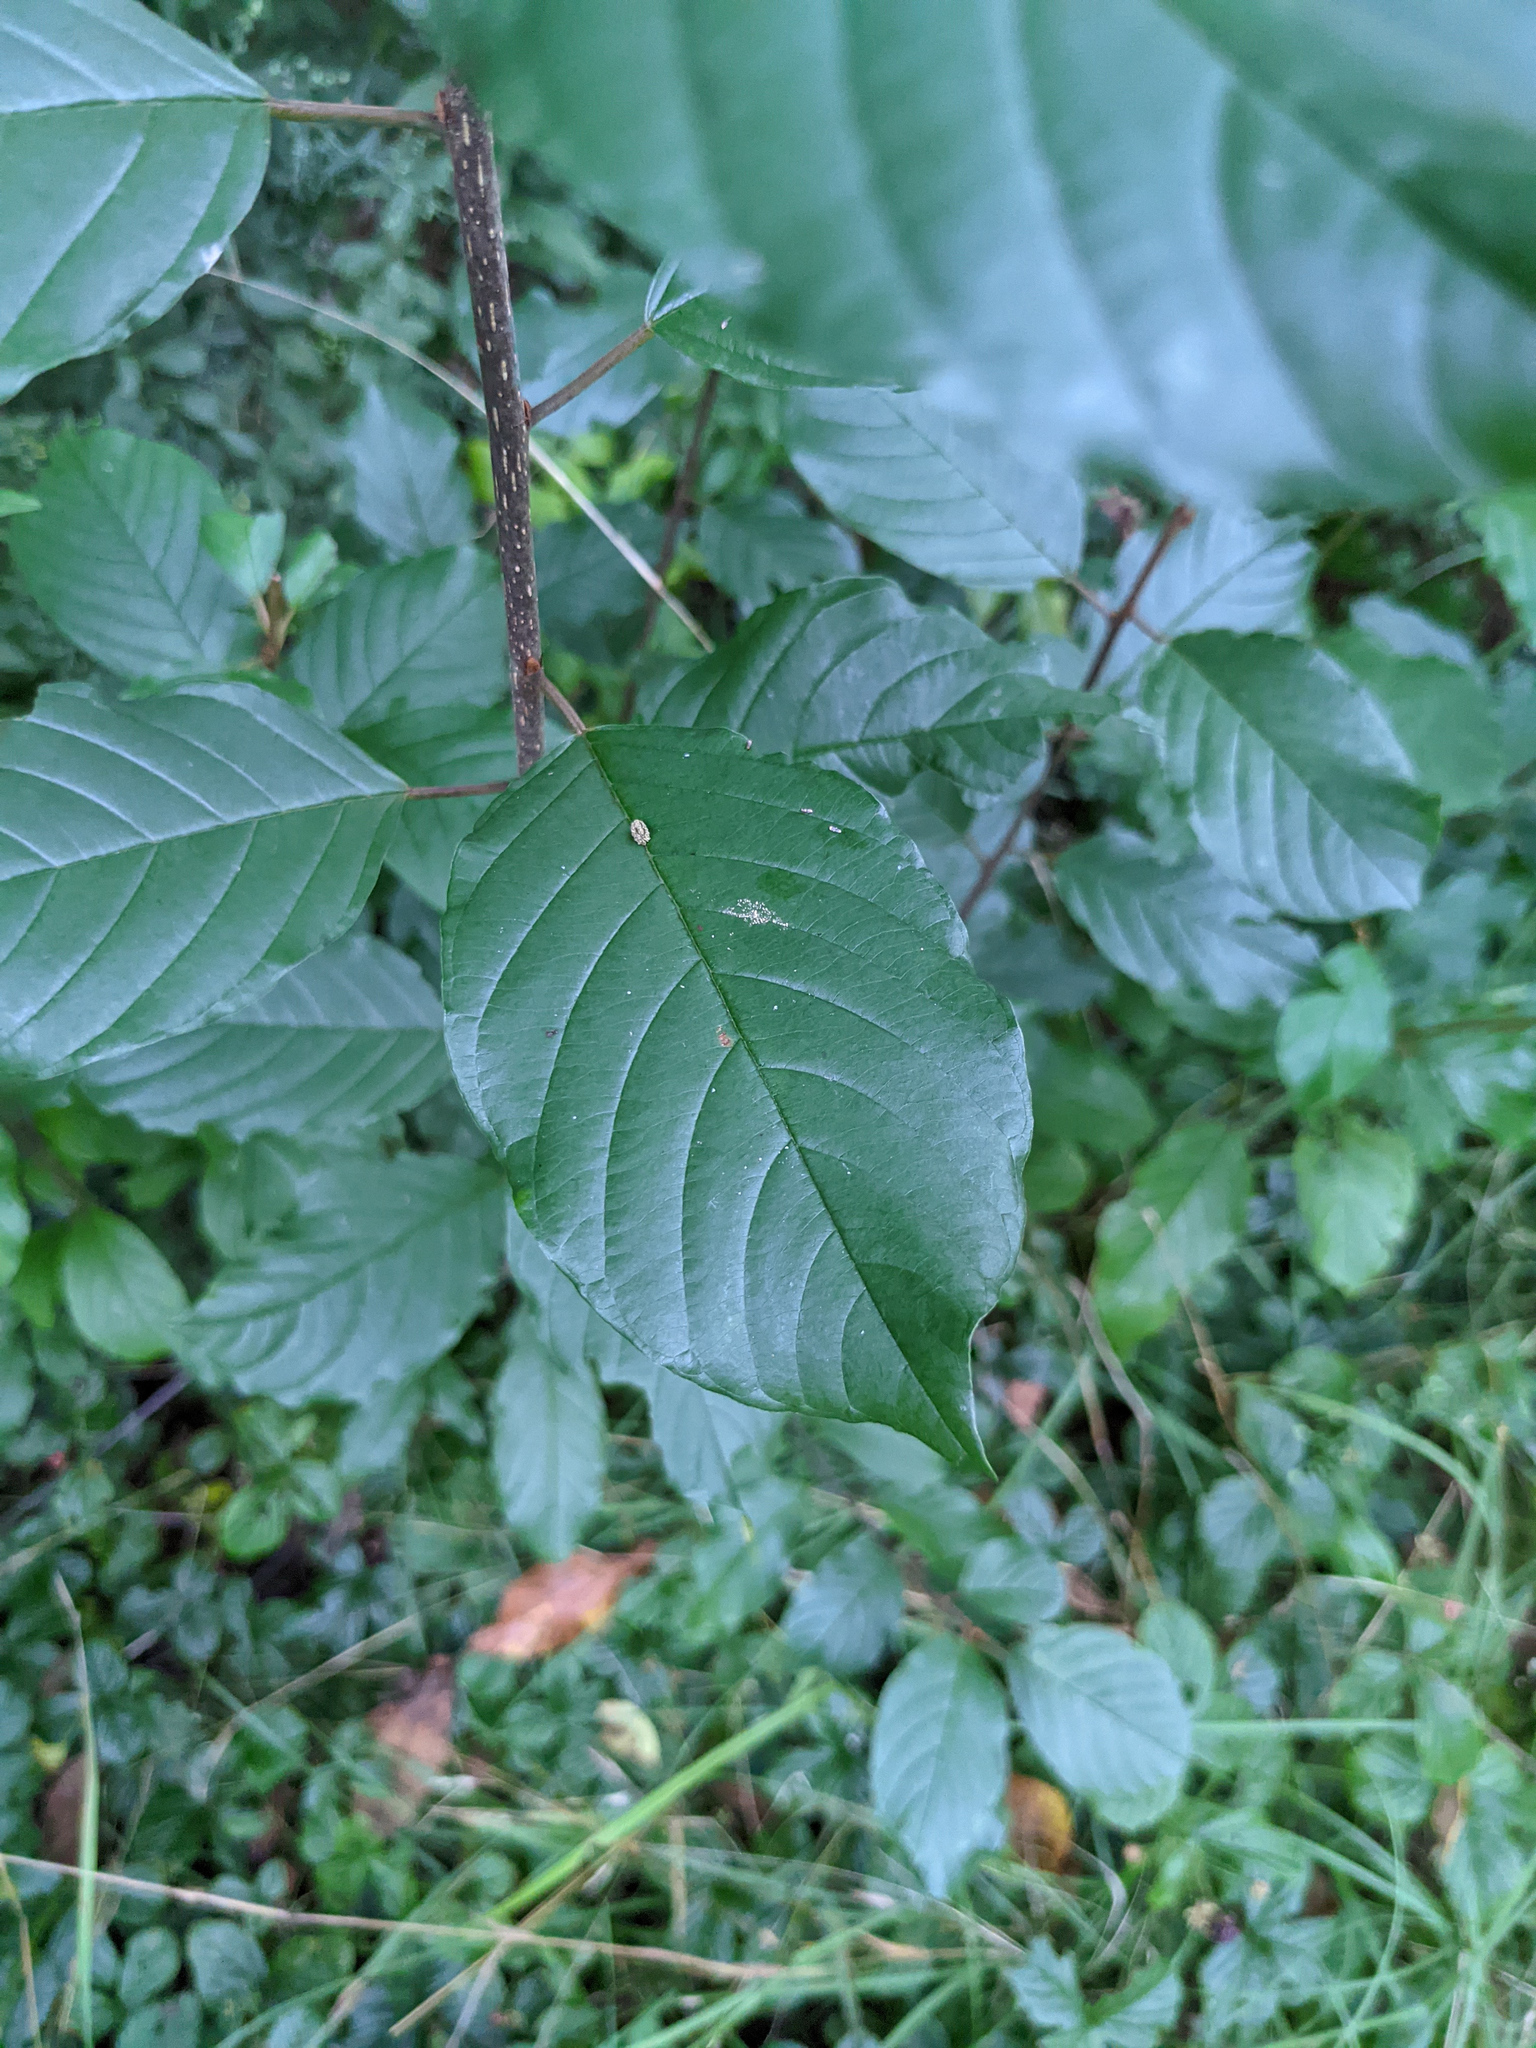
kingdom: Plantae
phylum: Tracheophyta
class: Magnoliopsida
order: Rosales
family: Rhamnaceae
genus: Frangula
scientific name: Frangula alnus
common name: Alder buckthorn
